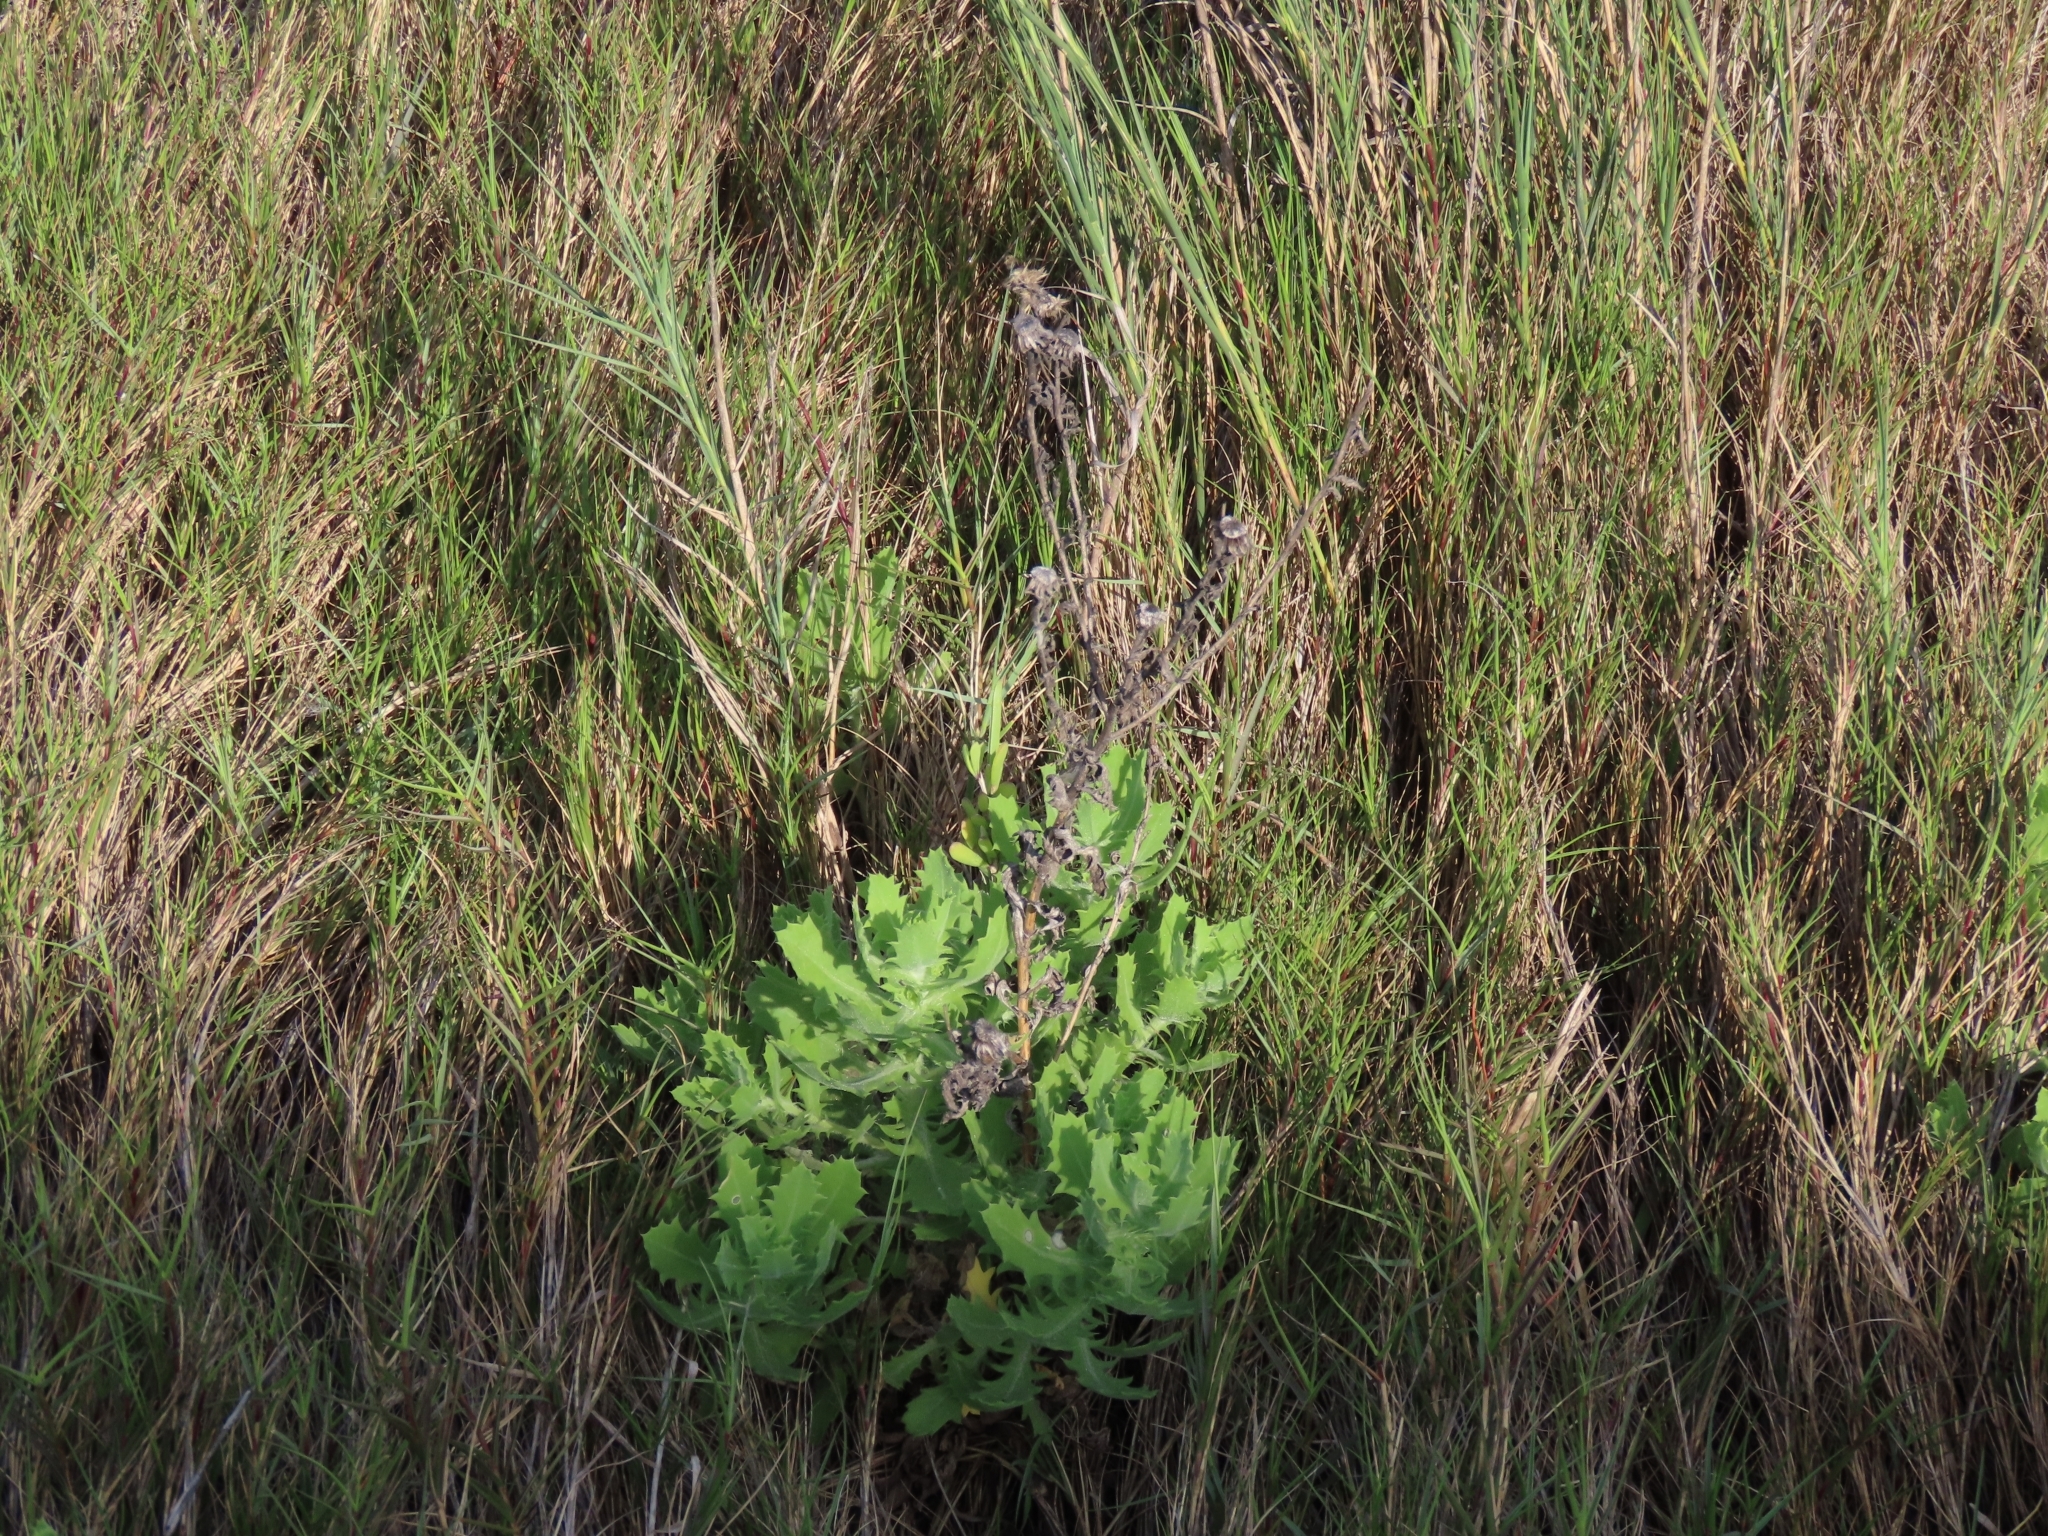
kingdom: Plantae
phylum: Tracheophyta
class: Magnoliopsida
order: Asterales
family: Asteraceae
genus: Rayjacksonia
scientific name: Rayjacksonia phyllocephala
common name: Gulf coast camphor daisy
